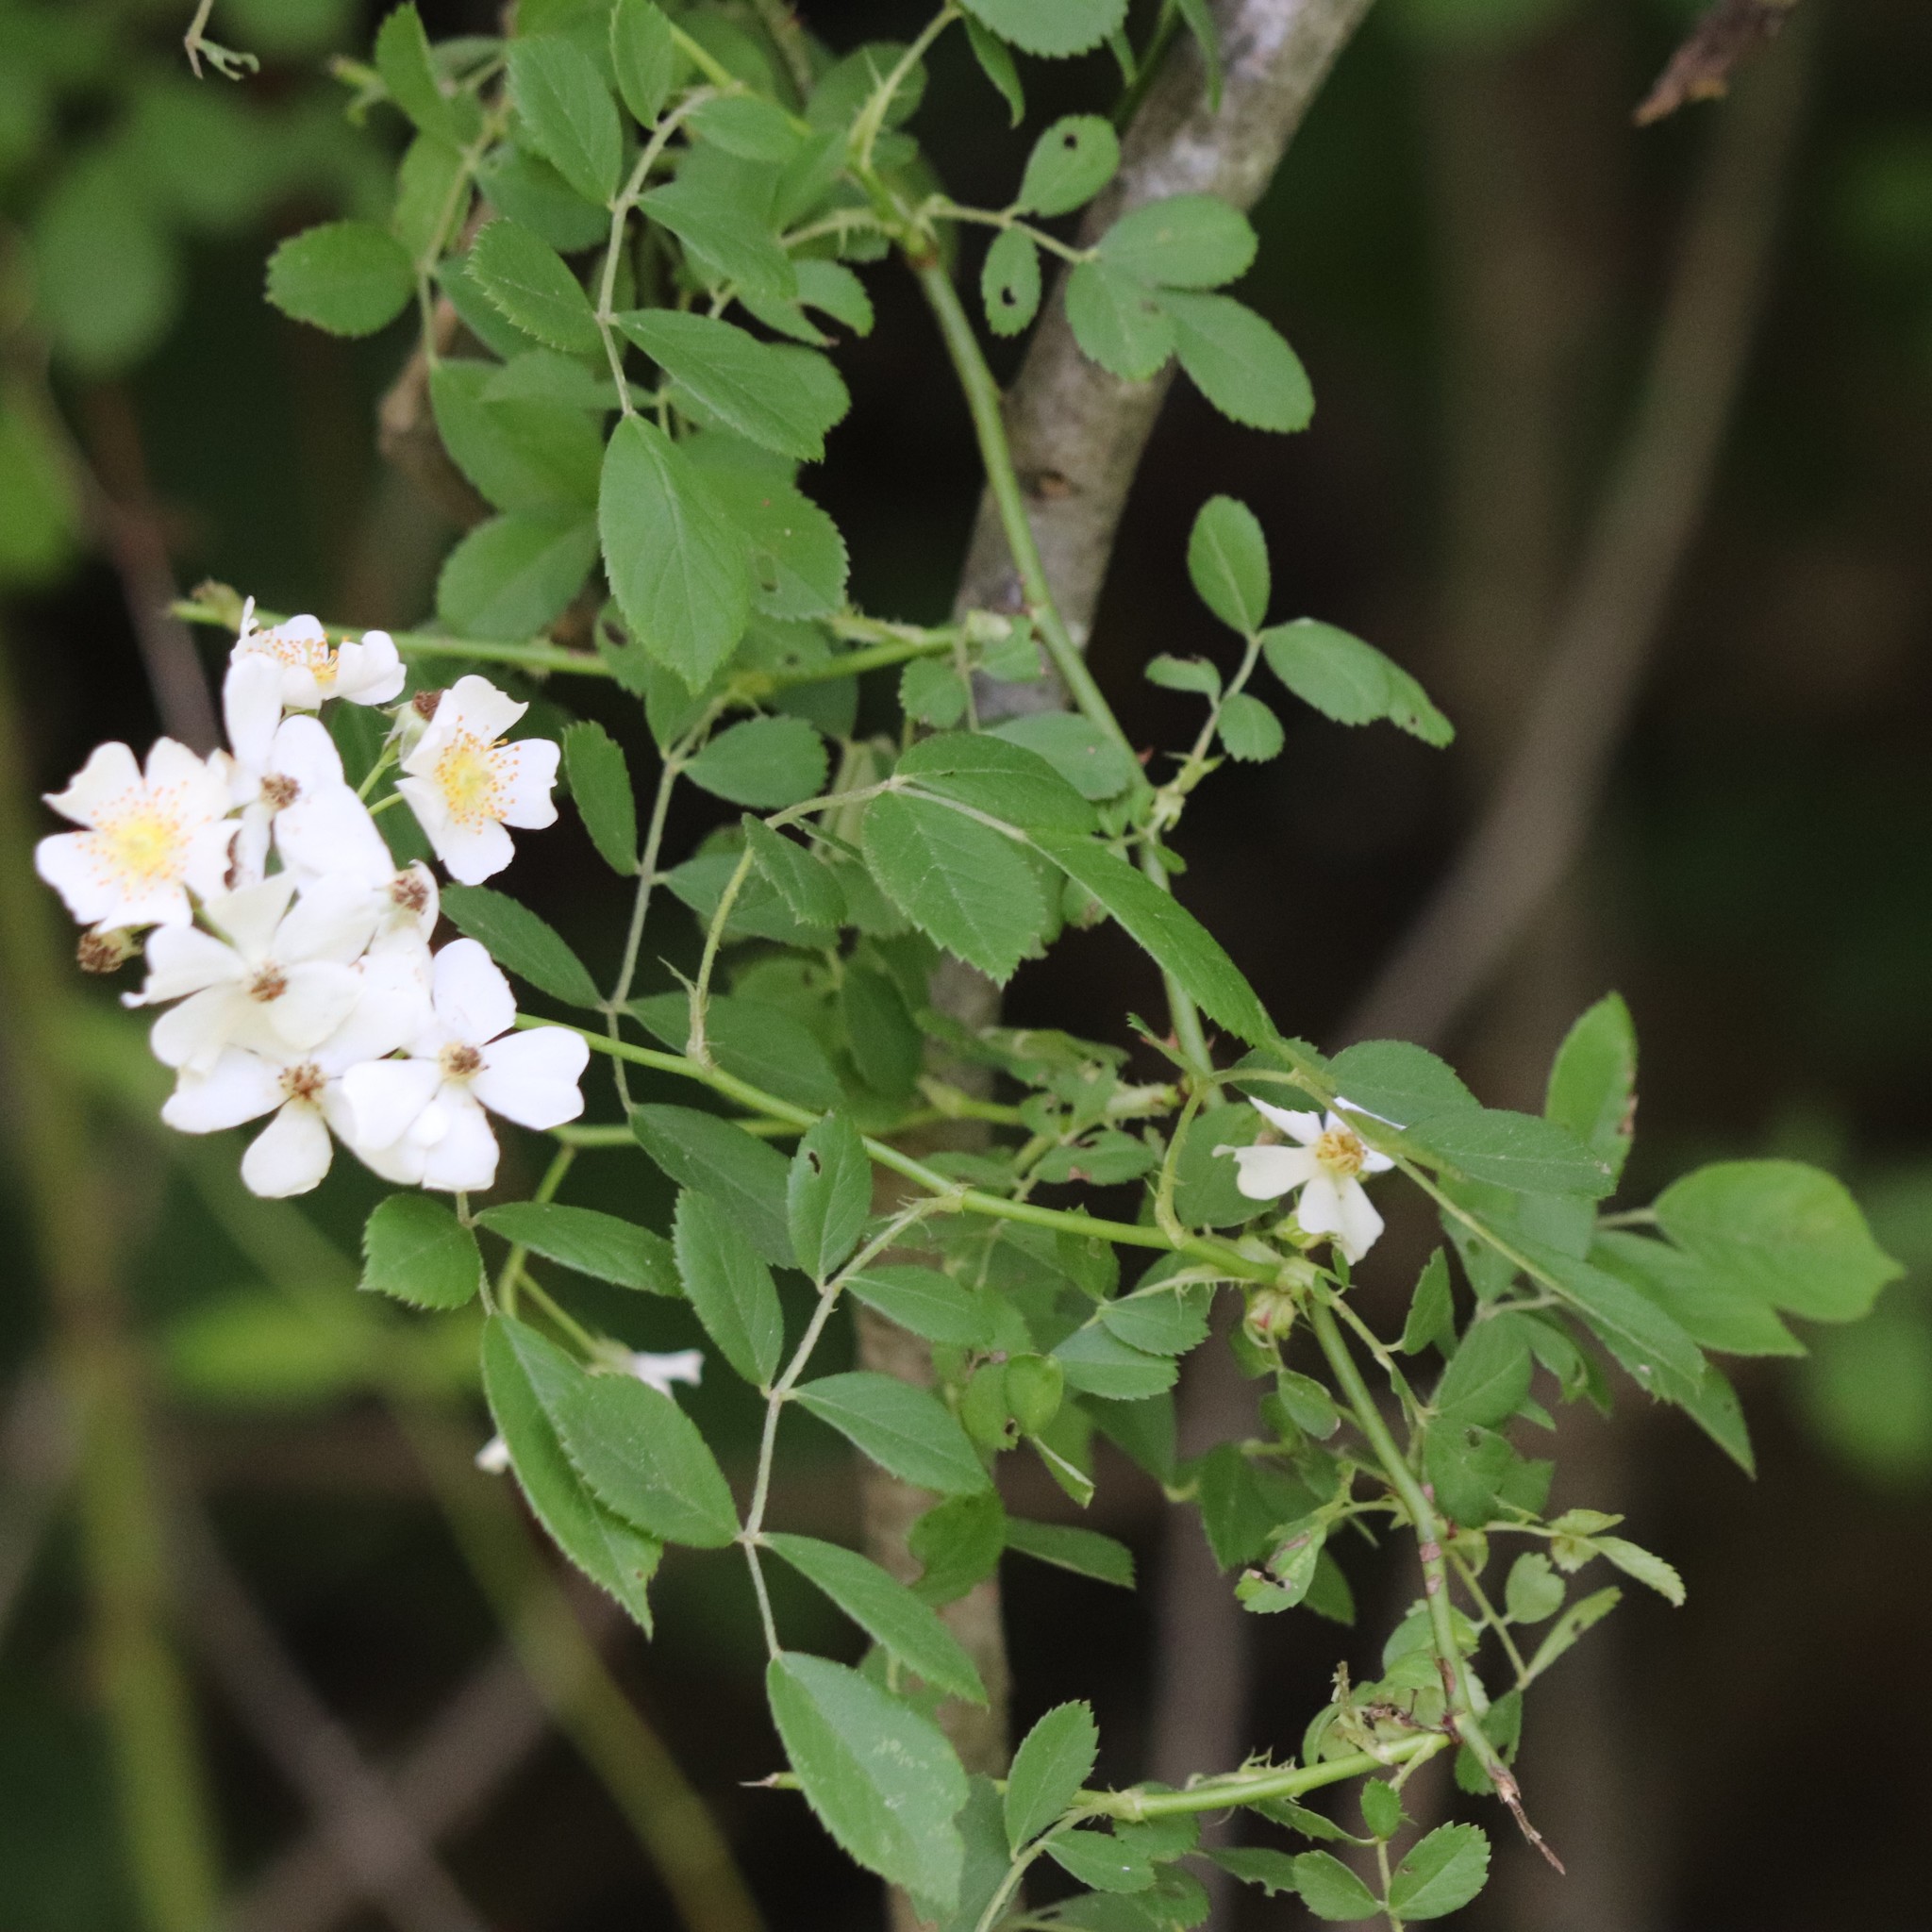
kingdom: Plantae
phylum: Tracheophyta
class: Magnoliopsida
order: Rosales
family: Rosaceae
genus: Rosa
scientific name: Rosa multiflora
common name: Multiflora rose
